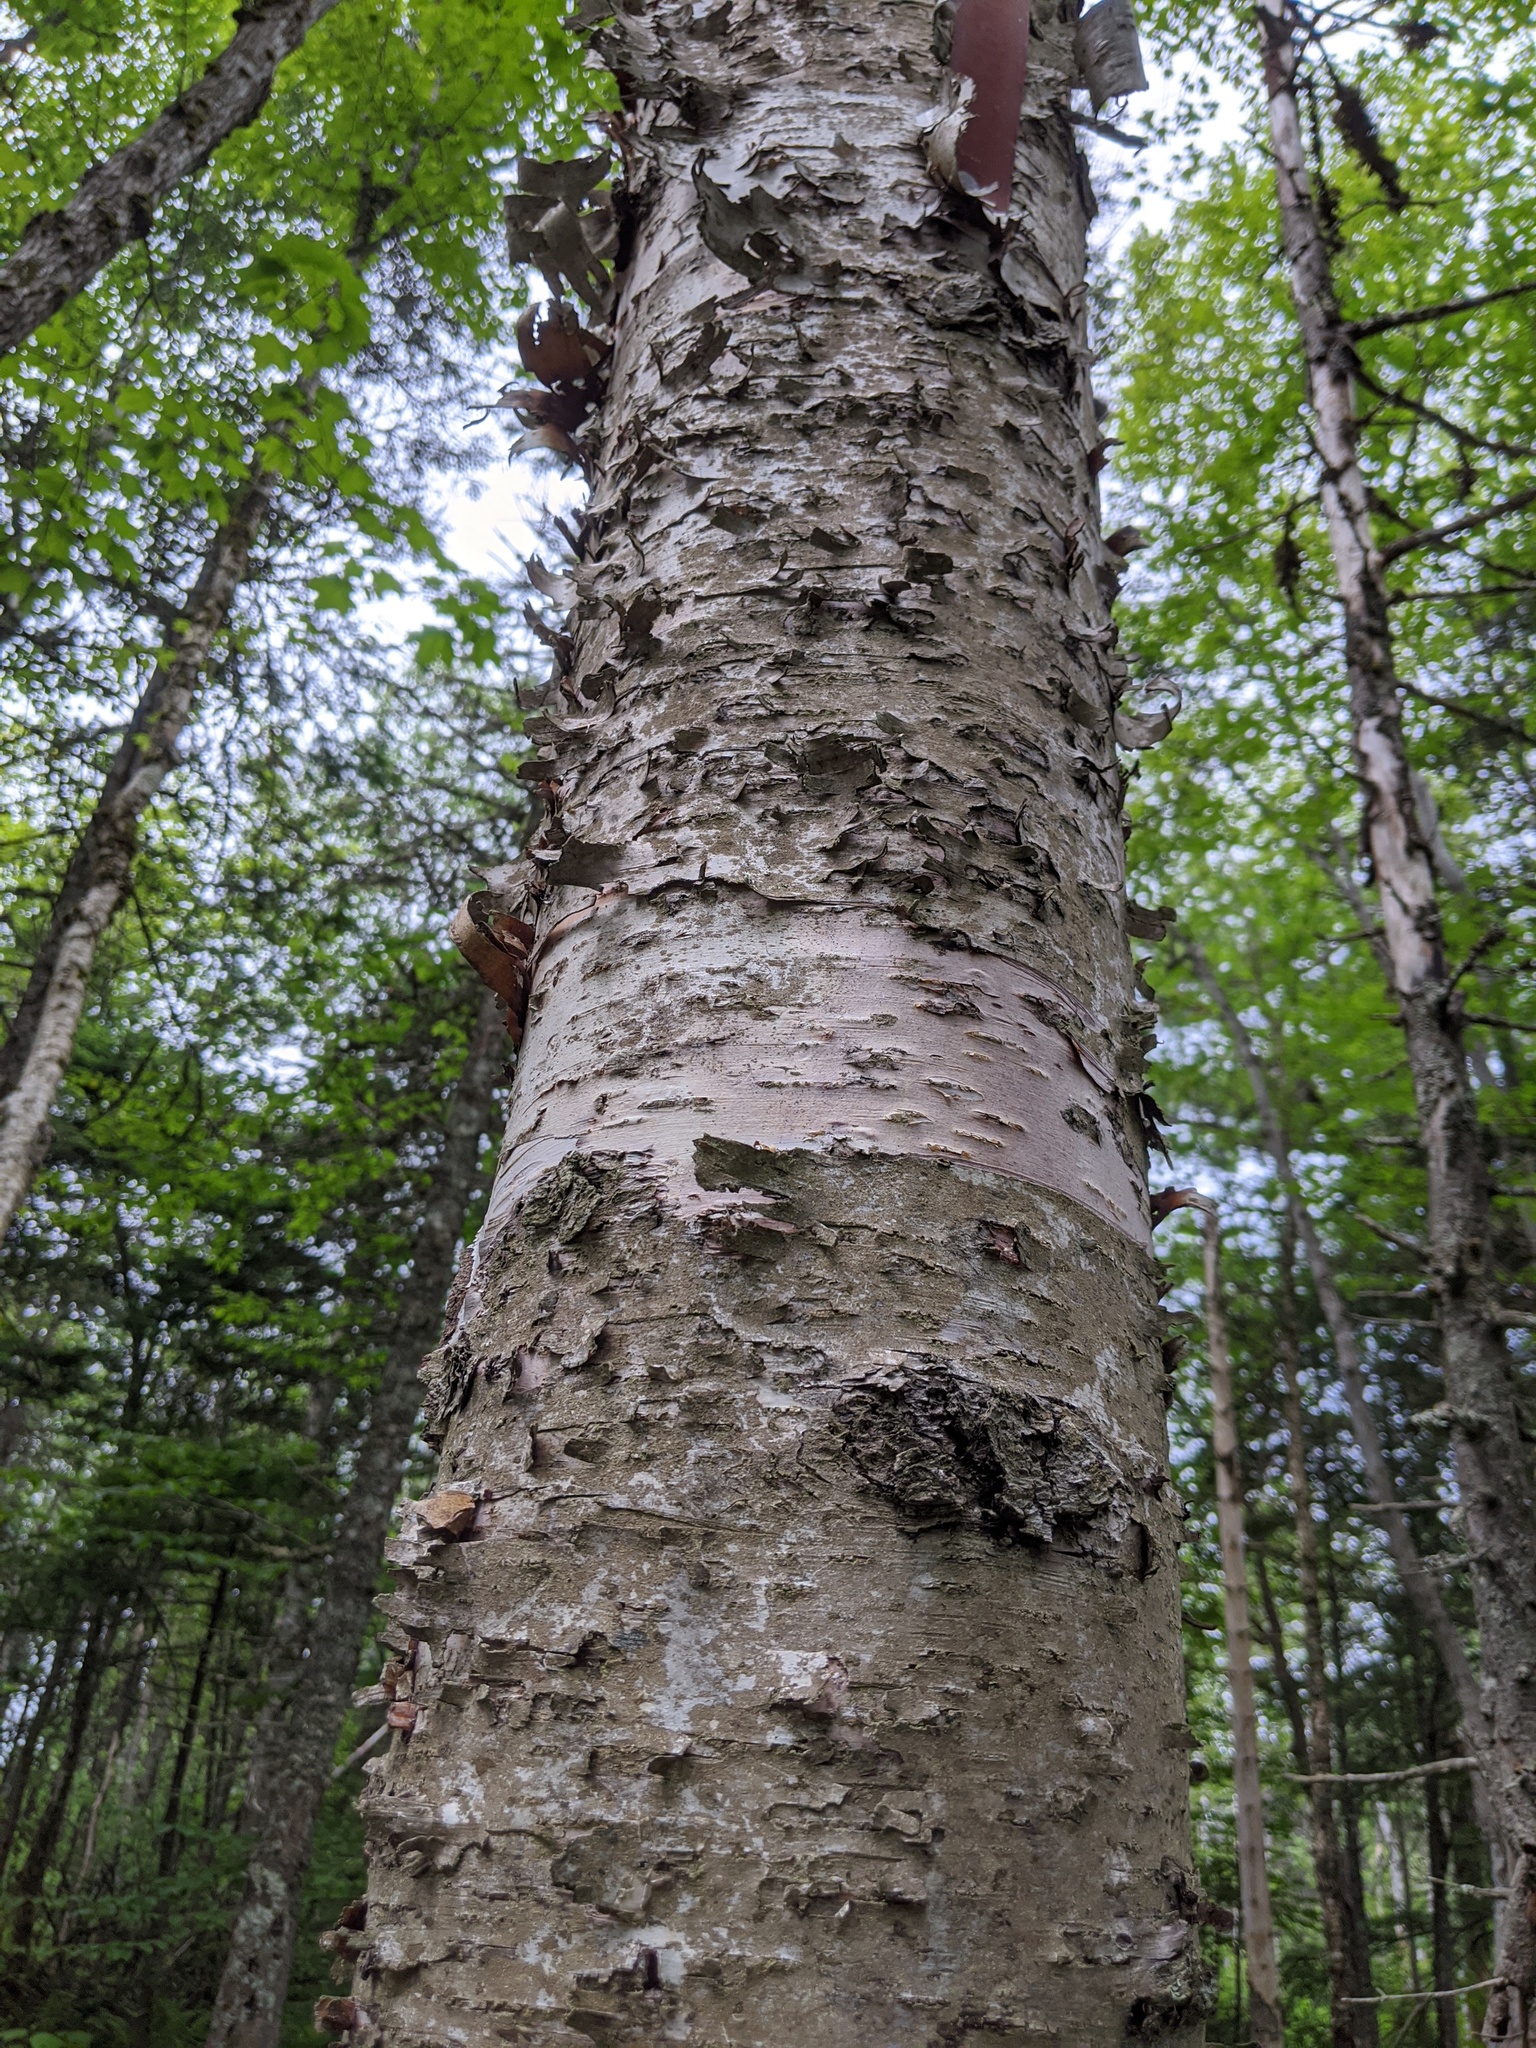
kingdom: Plantae
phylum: Tracheophyta
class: Magnoliopsida
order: Fagales
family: Betulaceae
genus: Betula
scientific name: Betula papyrifera
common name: Paper birch
